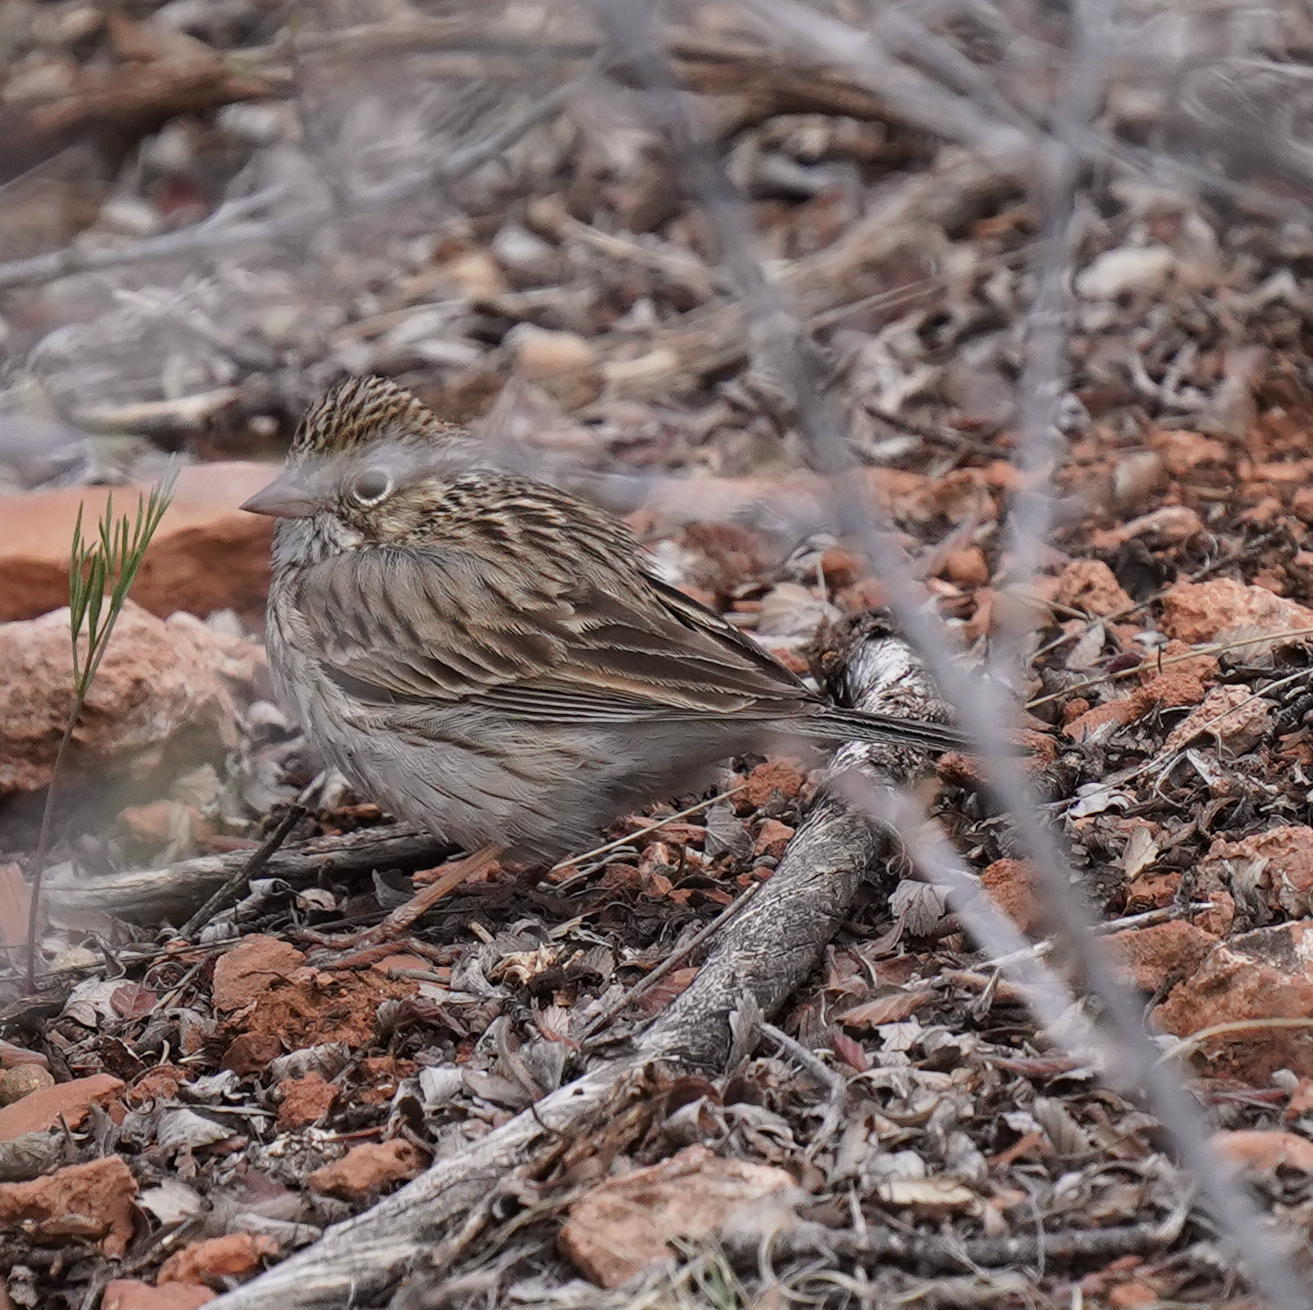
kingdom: Animalia
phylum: Chordata
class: Aves
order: Passeriformes
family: Passerellidae
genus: Pooecetes
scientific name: Pooecetes gramineus
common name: Vesper sparrow
